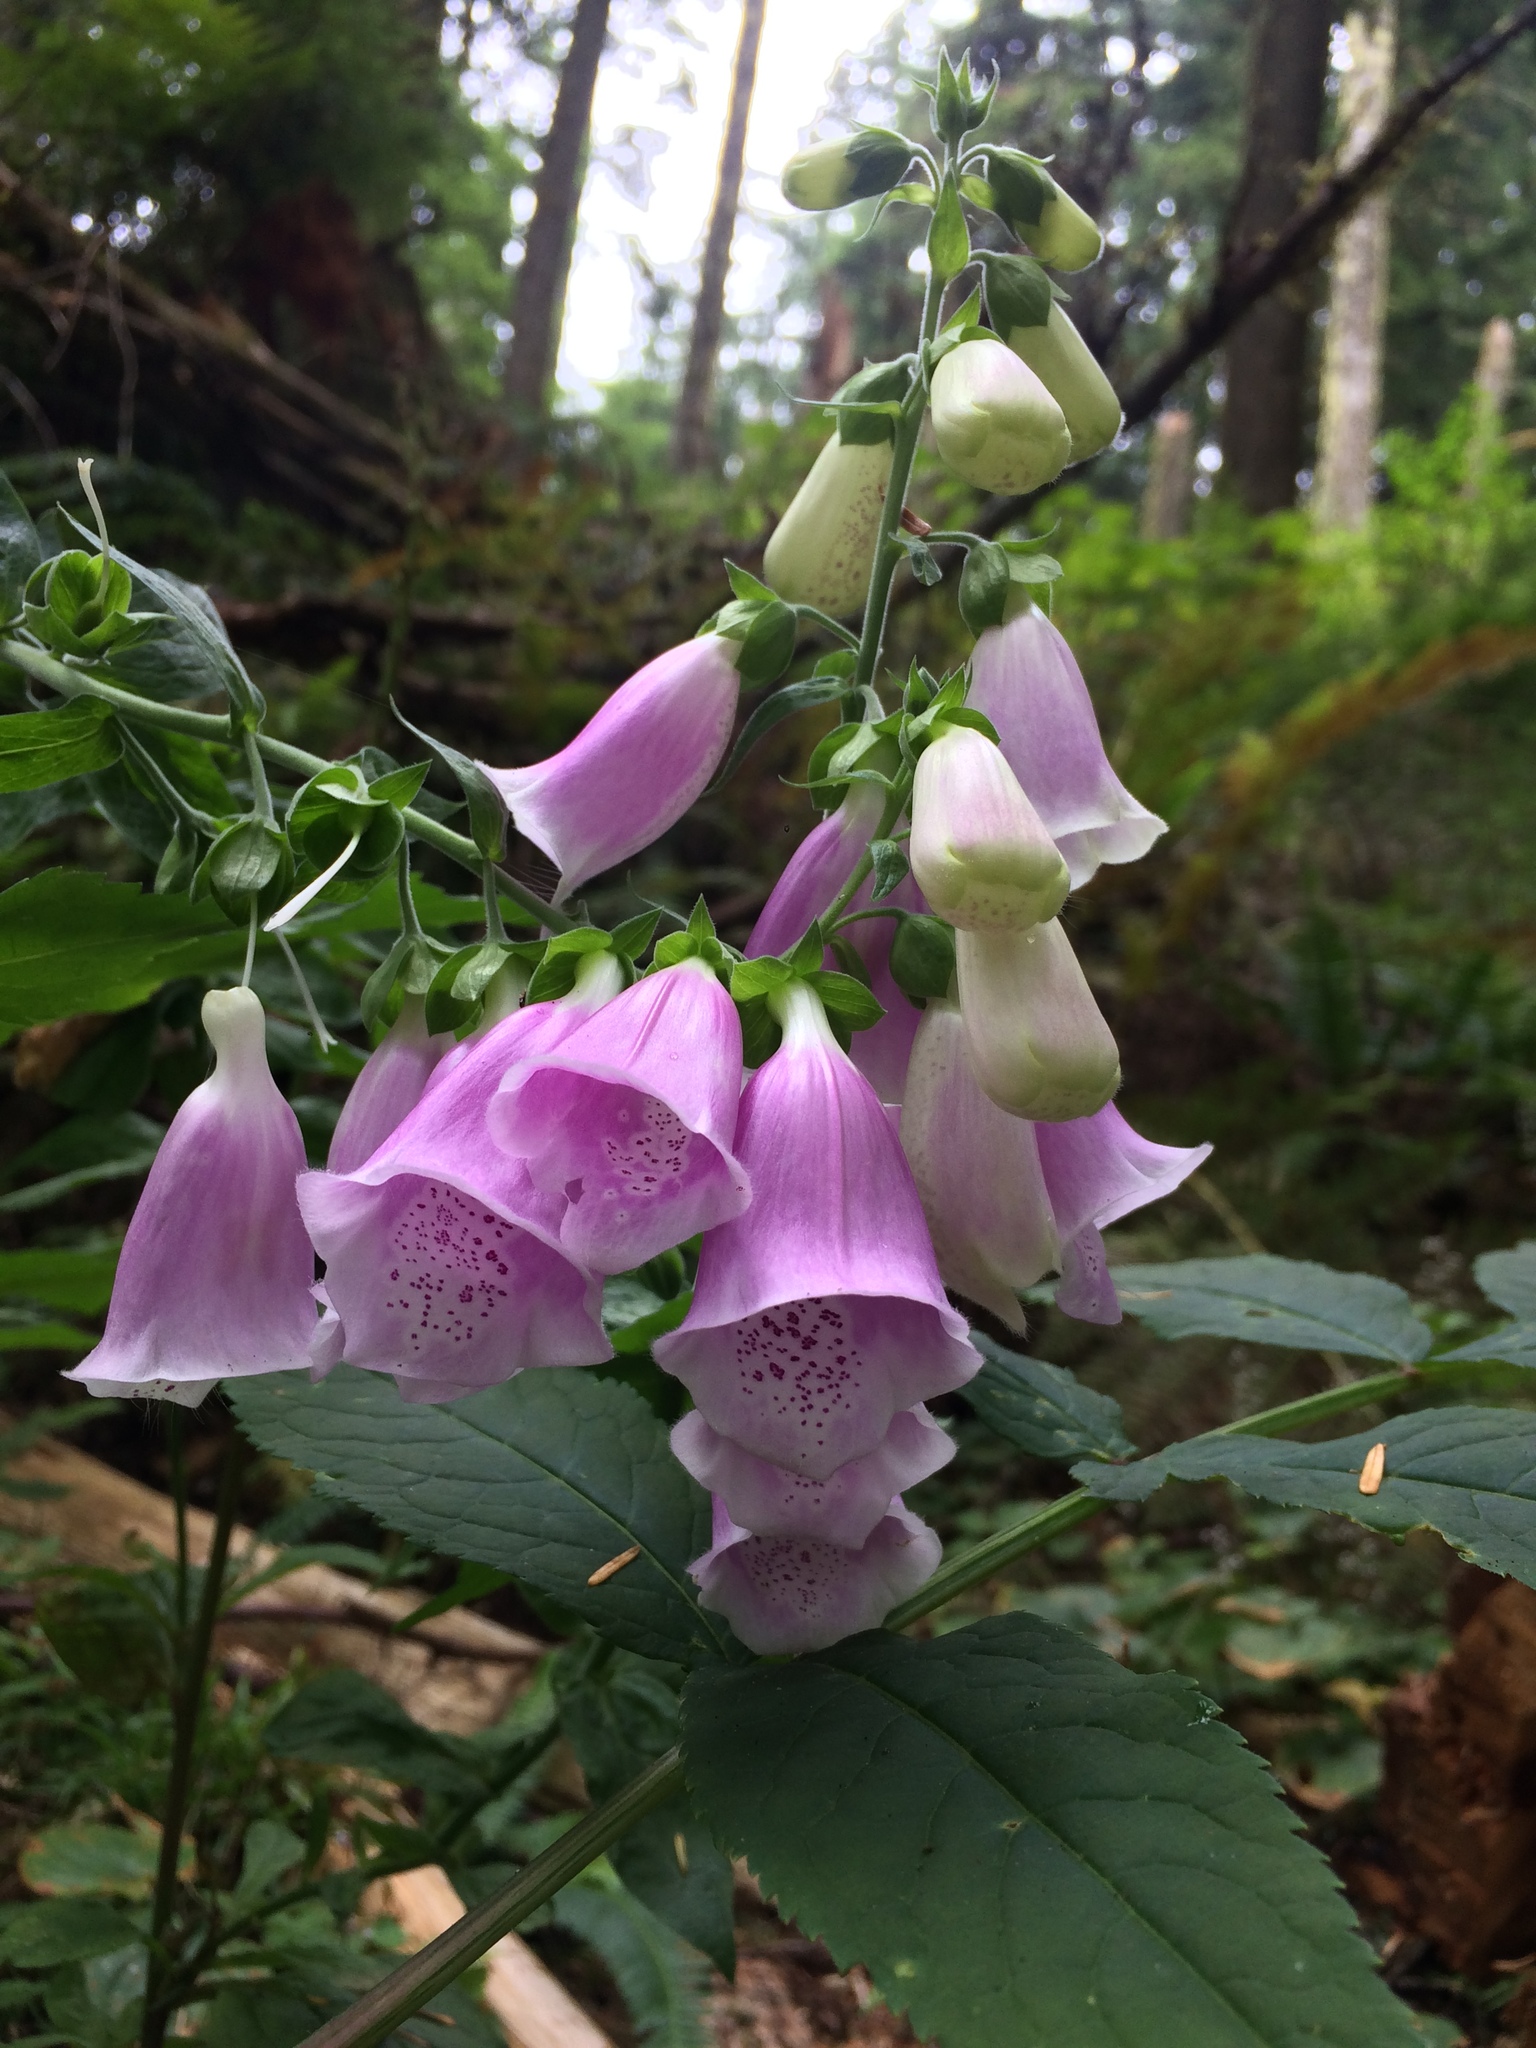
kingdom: Plantae
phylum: Tracheophyta
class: Magnoliopsida
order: Lamiales
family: Plantaginaceae
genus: Digitalis
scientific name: Digitalis purpurea
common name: Foxglove
